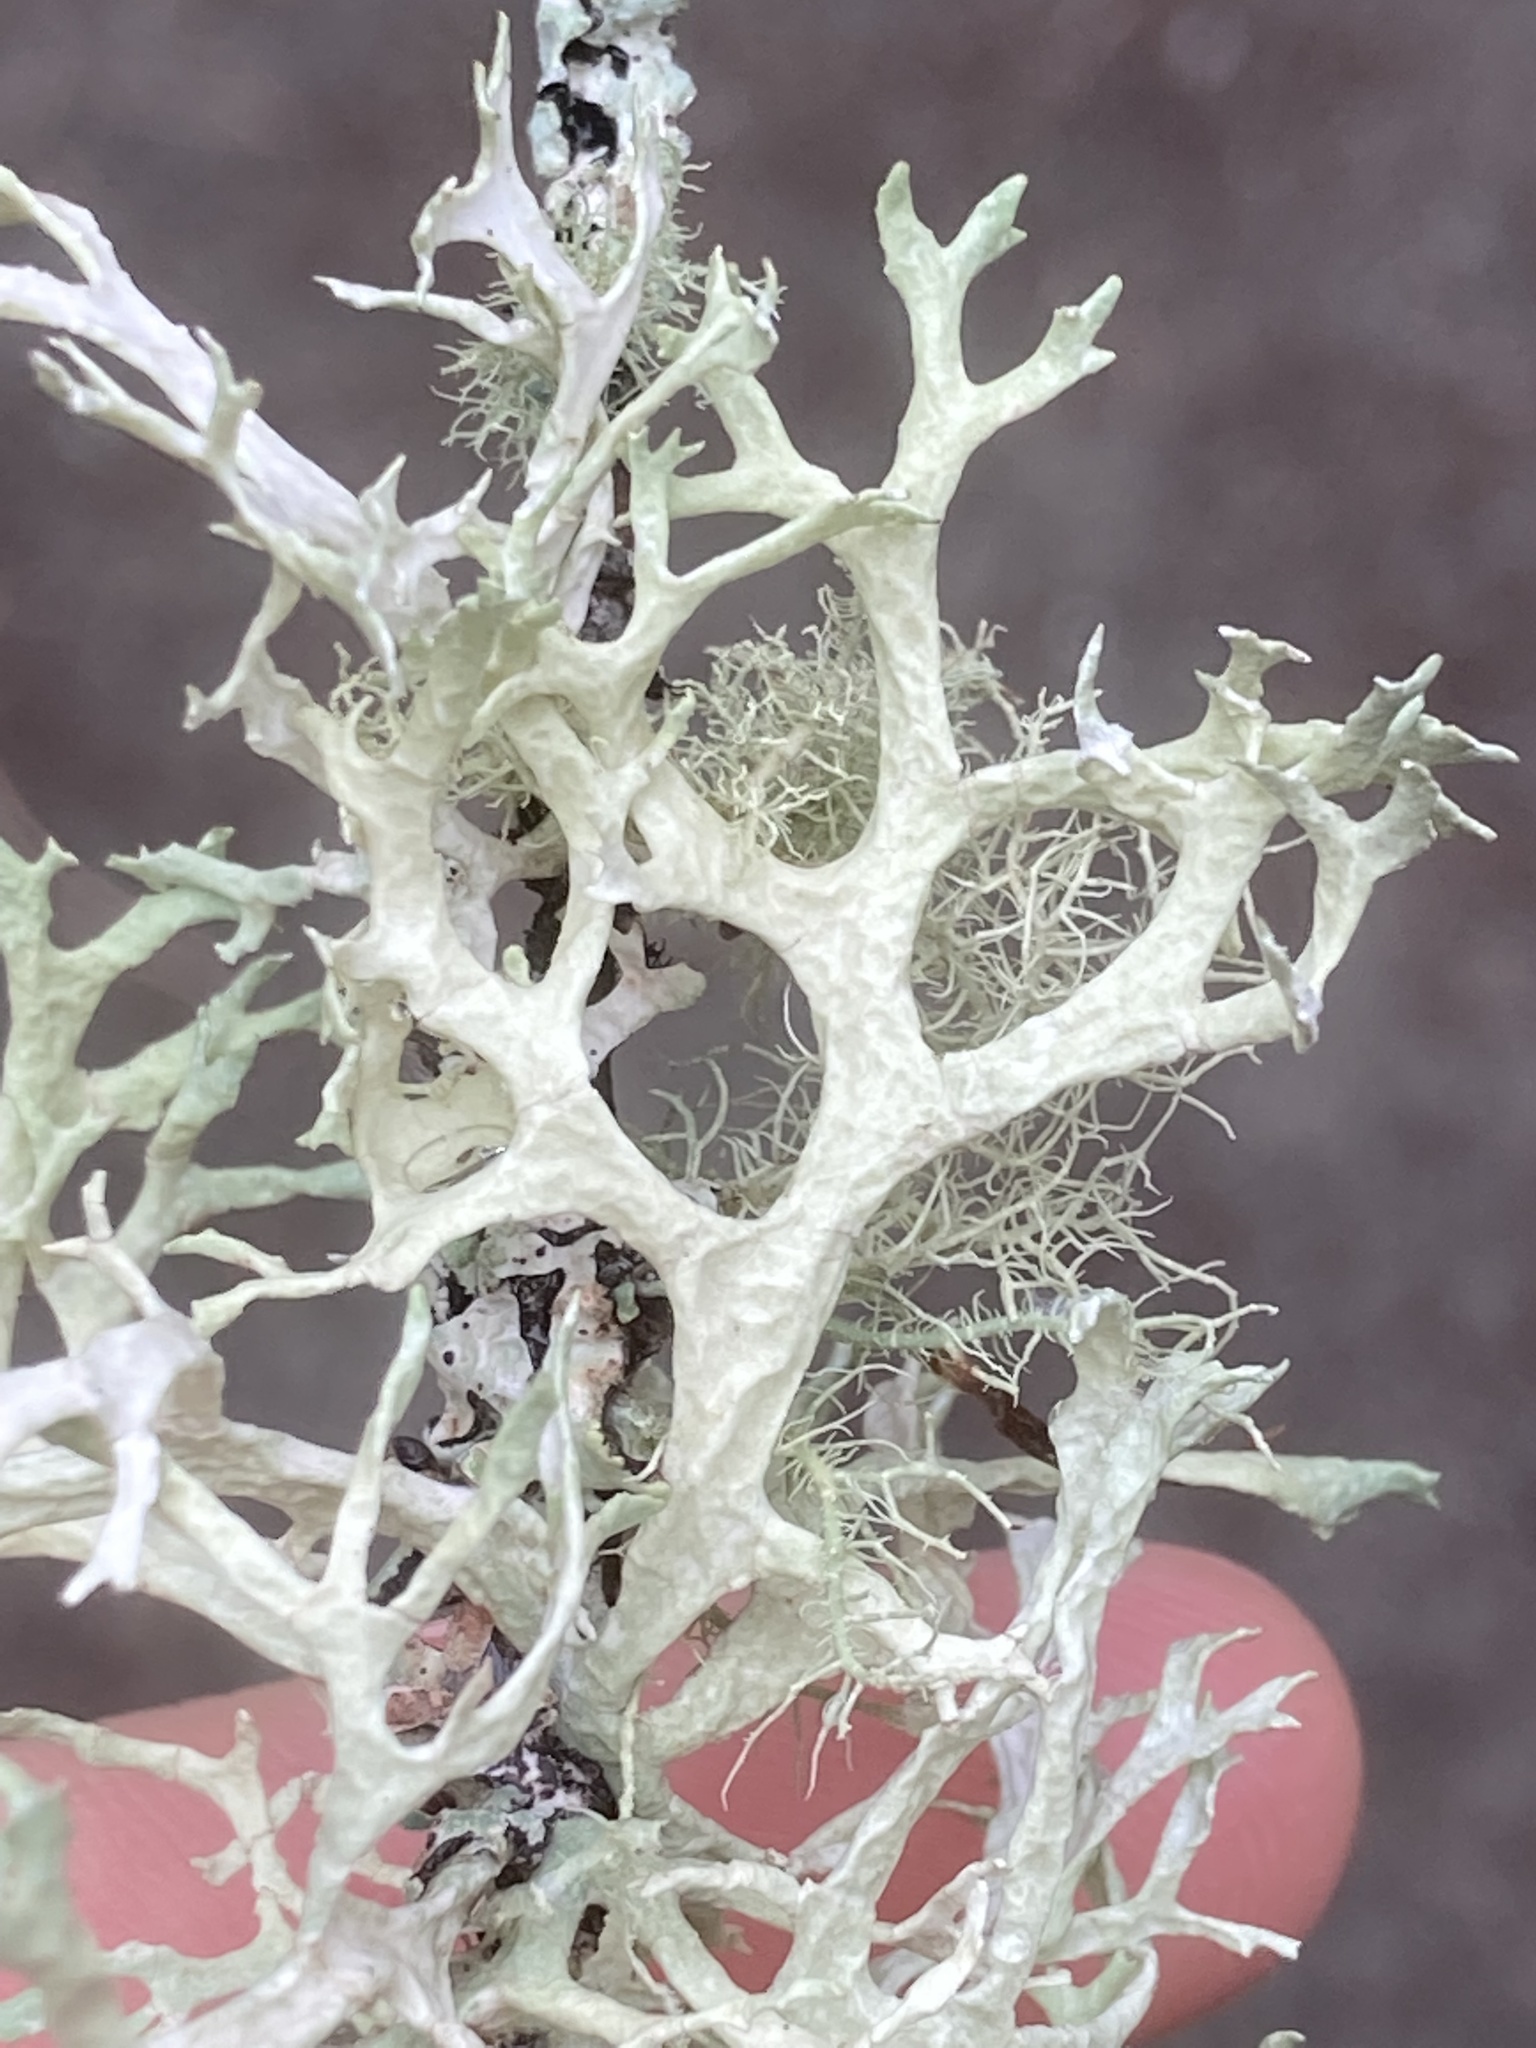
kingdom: Fungi
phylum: Ascomycota
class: Lecanoromycetes
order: Lecanorales
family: Parmeliaceae
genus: Evernia
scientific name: Evernia prunastri
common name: Oak moss
